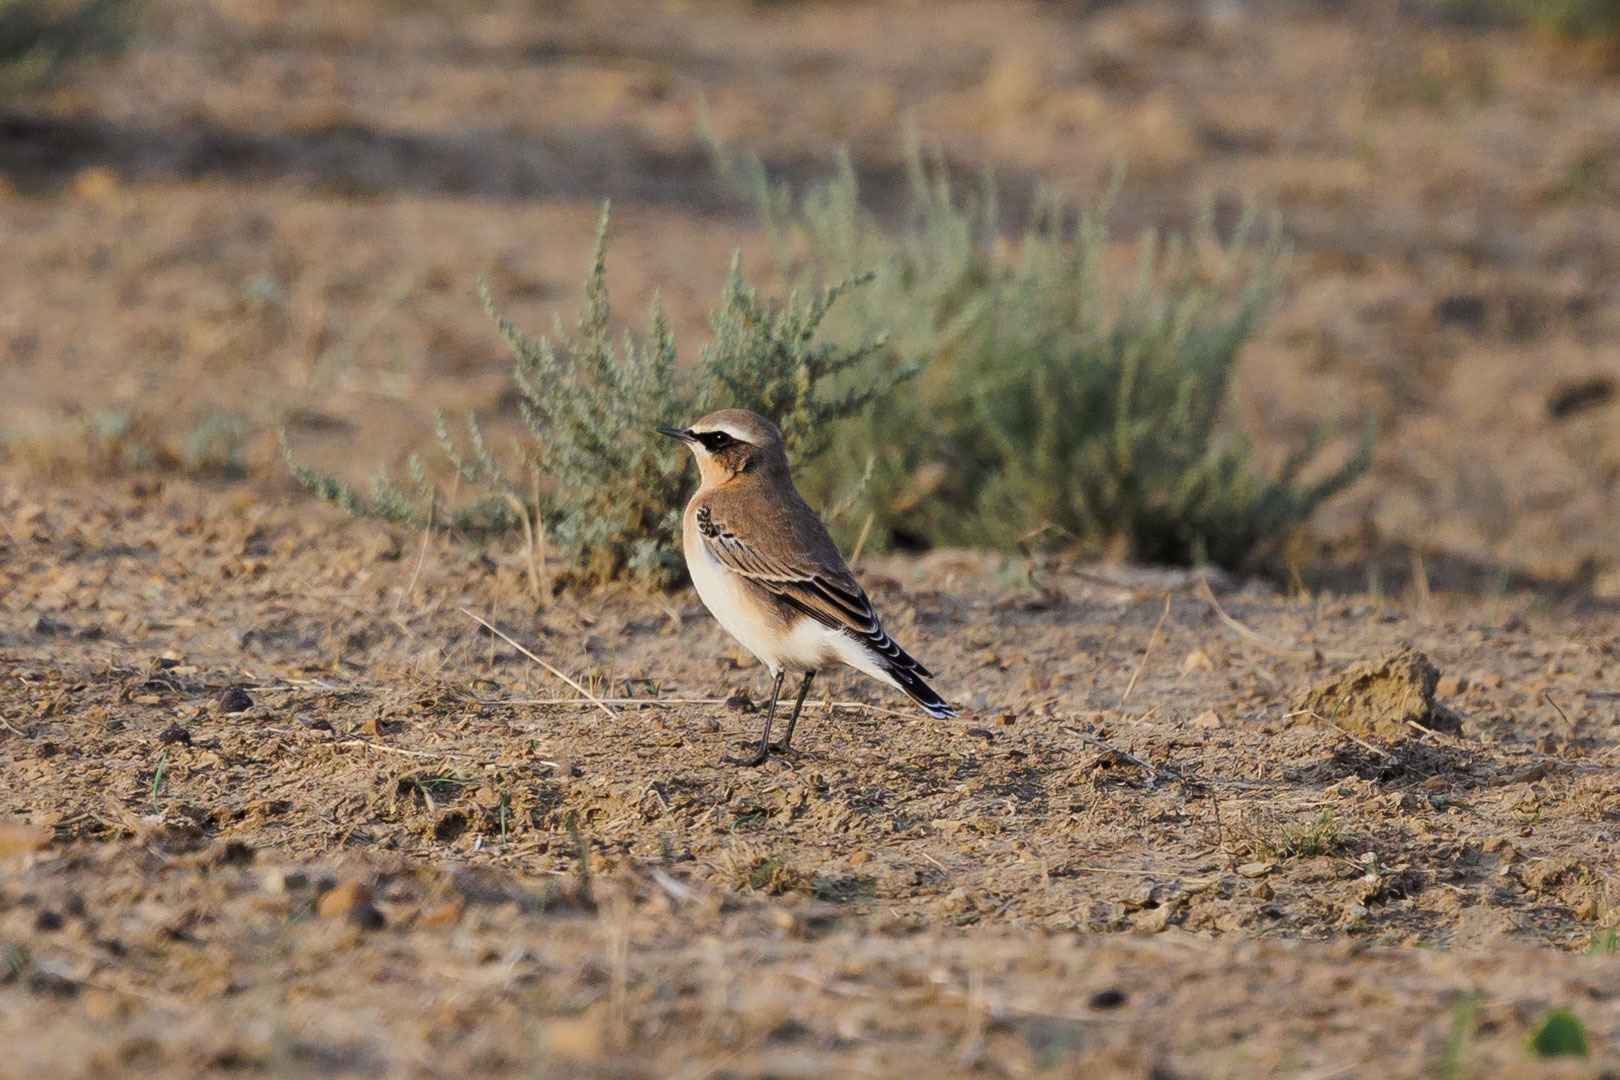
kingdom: Animalia
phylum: Chordata
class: Aves
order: Passeriformes
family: Muscicapidae
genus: Oenanthe
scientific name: Oenanthe oenanthe
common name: Northern wheatear
